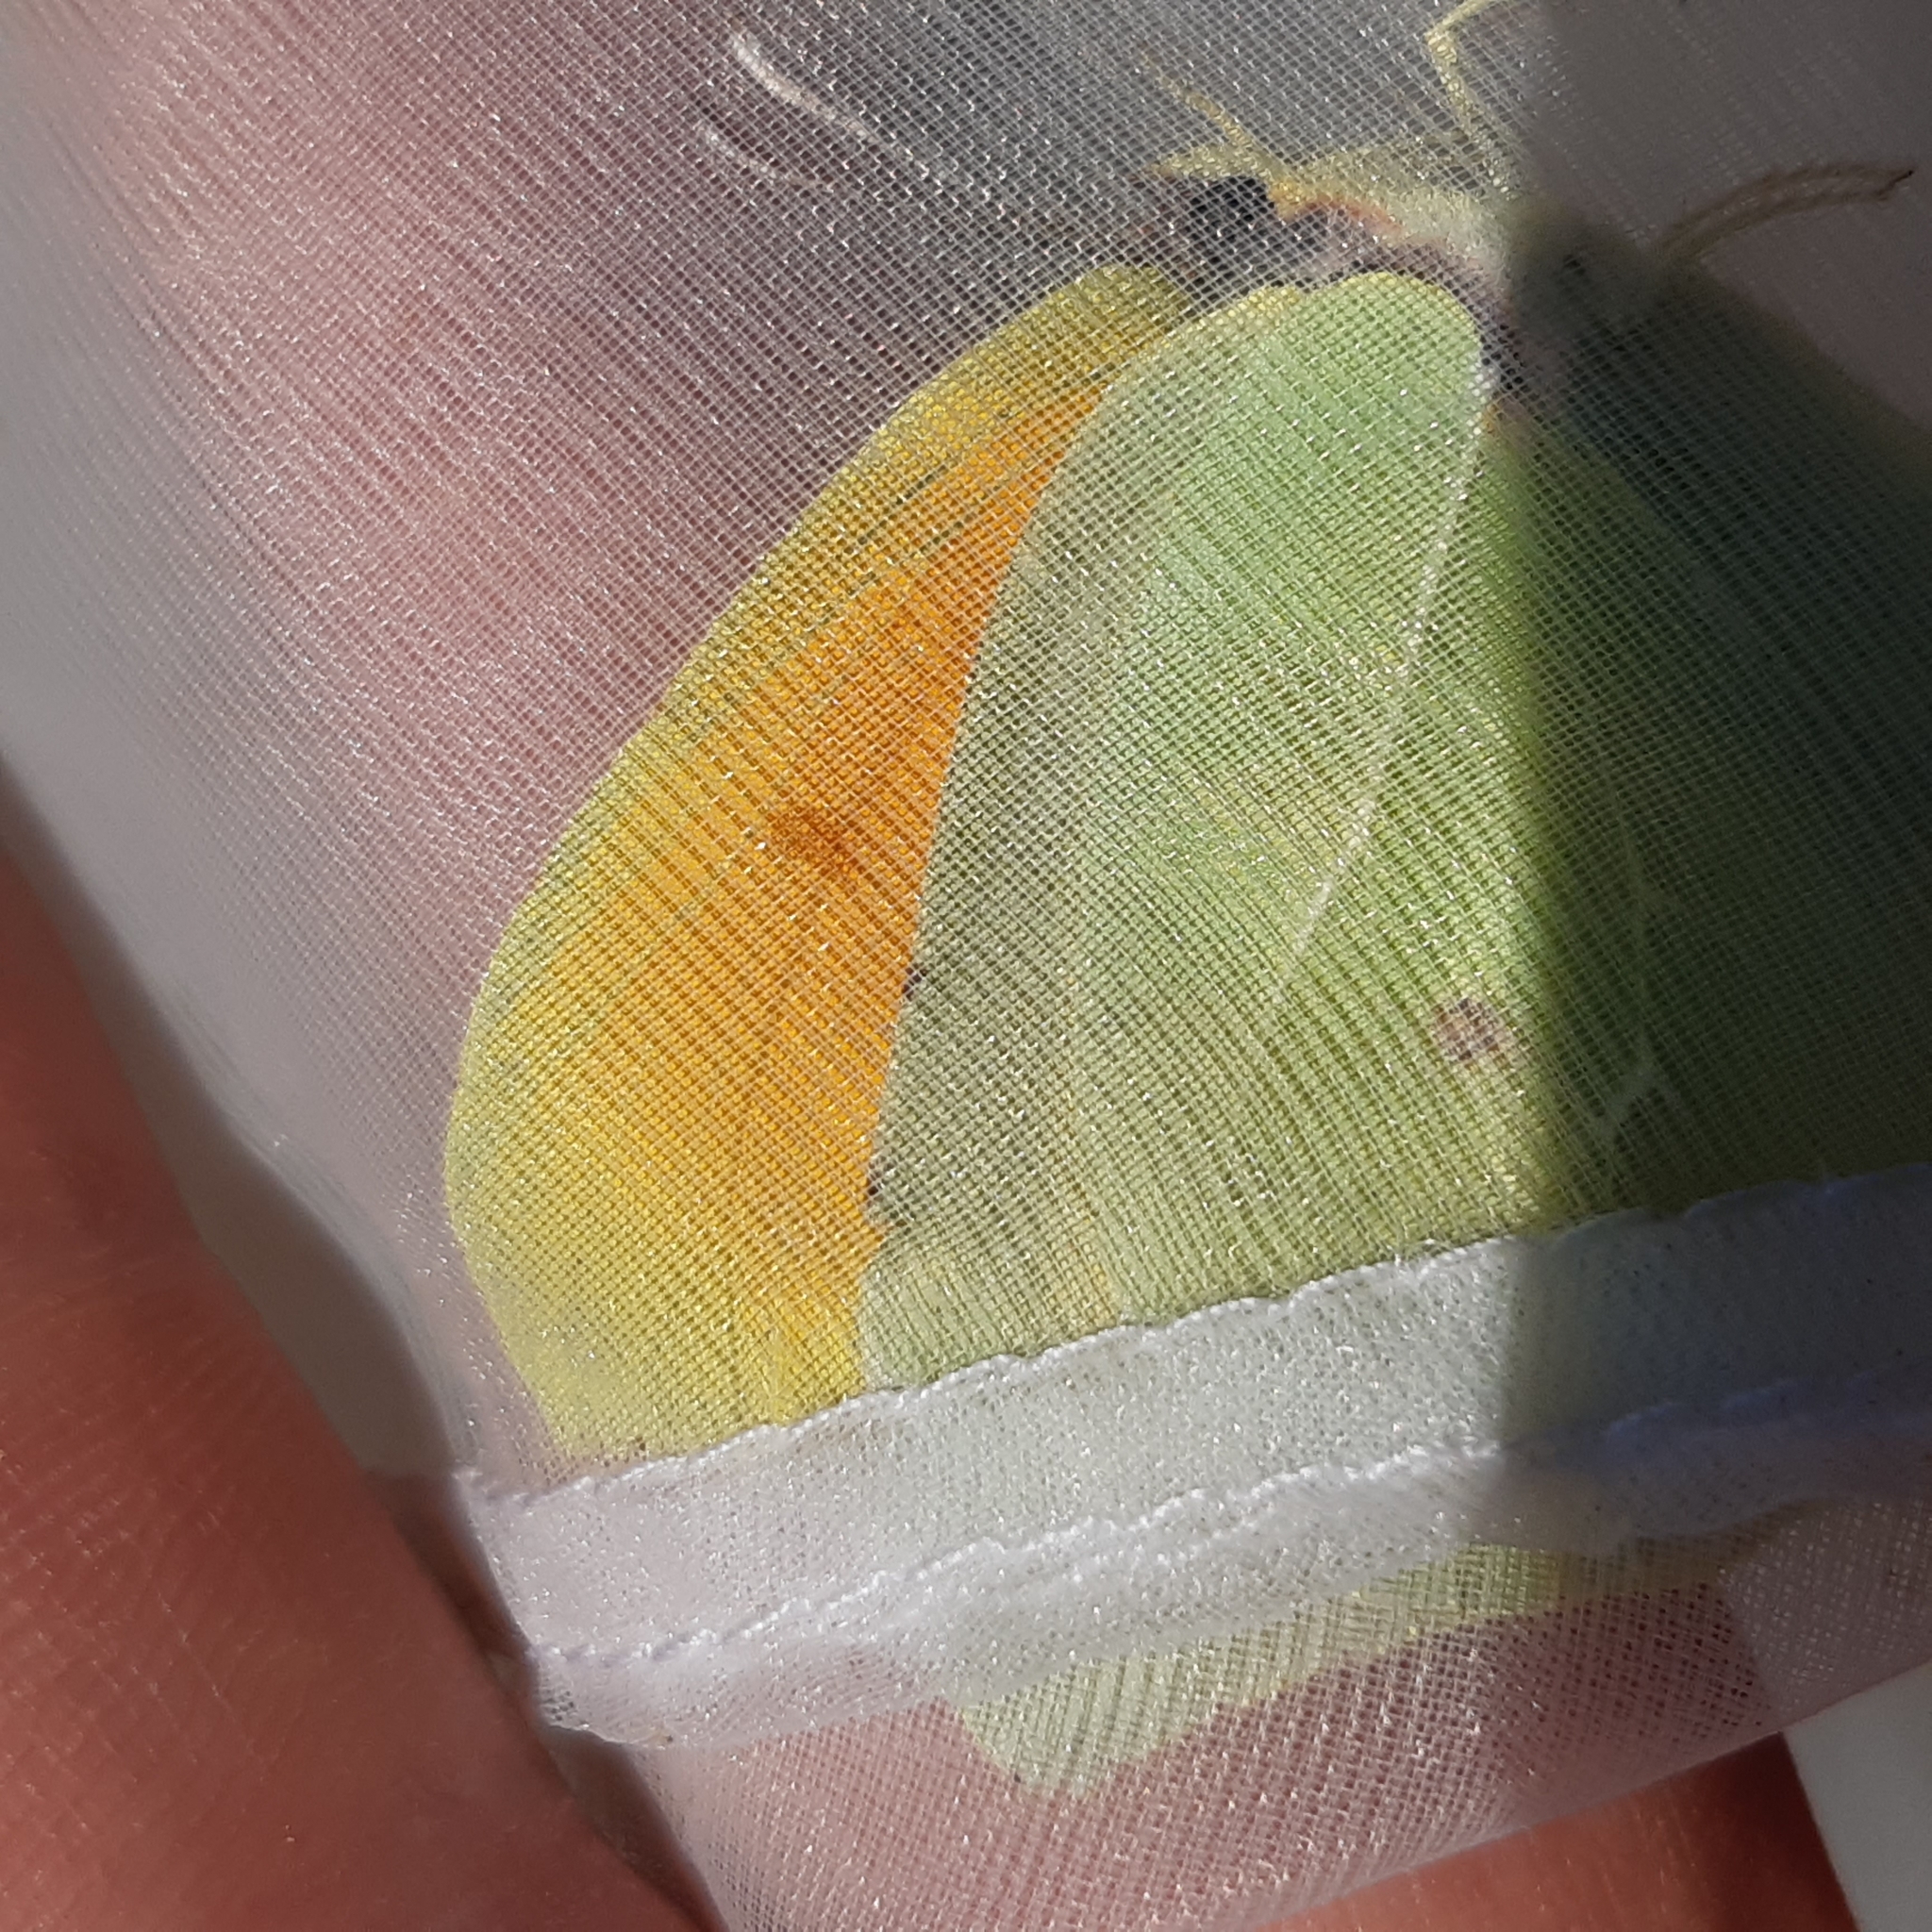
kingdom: Animalia
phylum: Arthropoda
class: Insecta
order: Lepidoptera
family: Pieridae
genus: Gonepteryx
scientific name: Gonepteryx cleopatra
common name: Cleopatra
